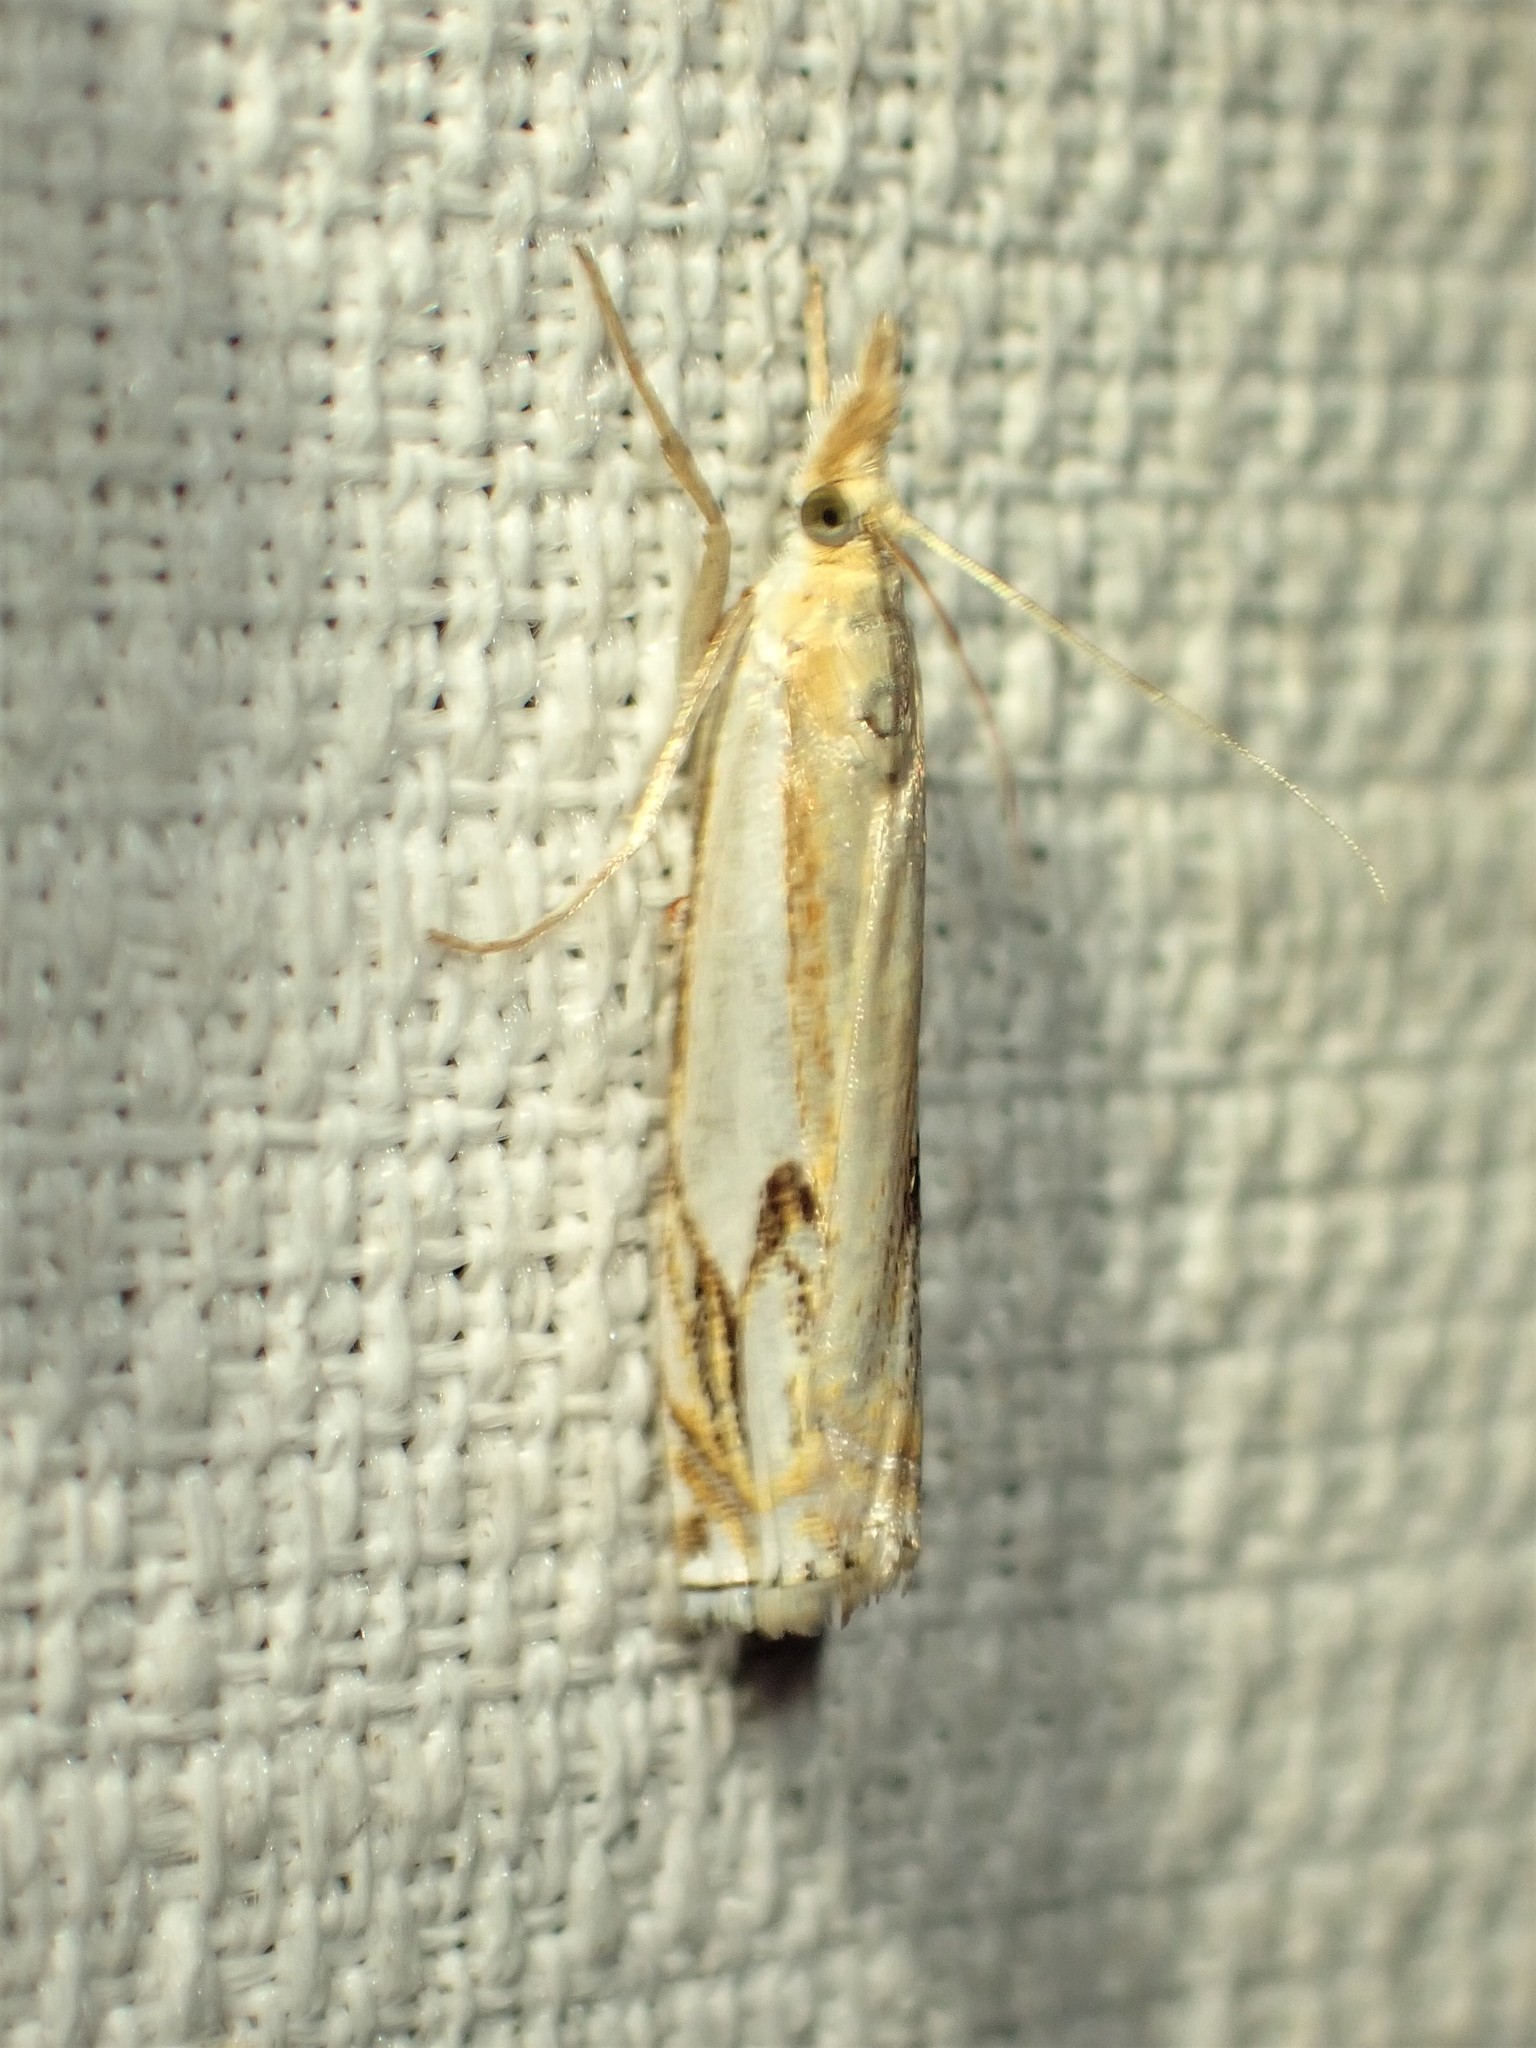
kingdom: Animalia
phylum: Arthropoda
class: Insecta
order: Lepidoptera
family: Crambidae
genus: Crambus
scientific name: Crambus agitatellus
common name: Double-banded grass-veneer
